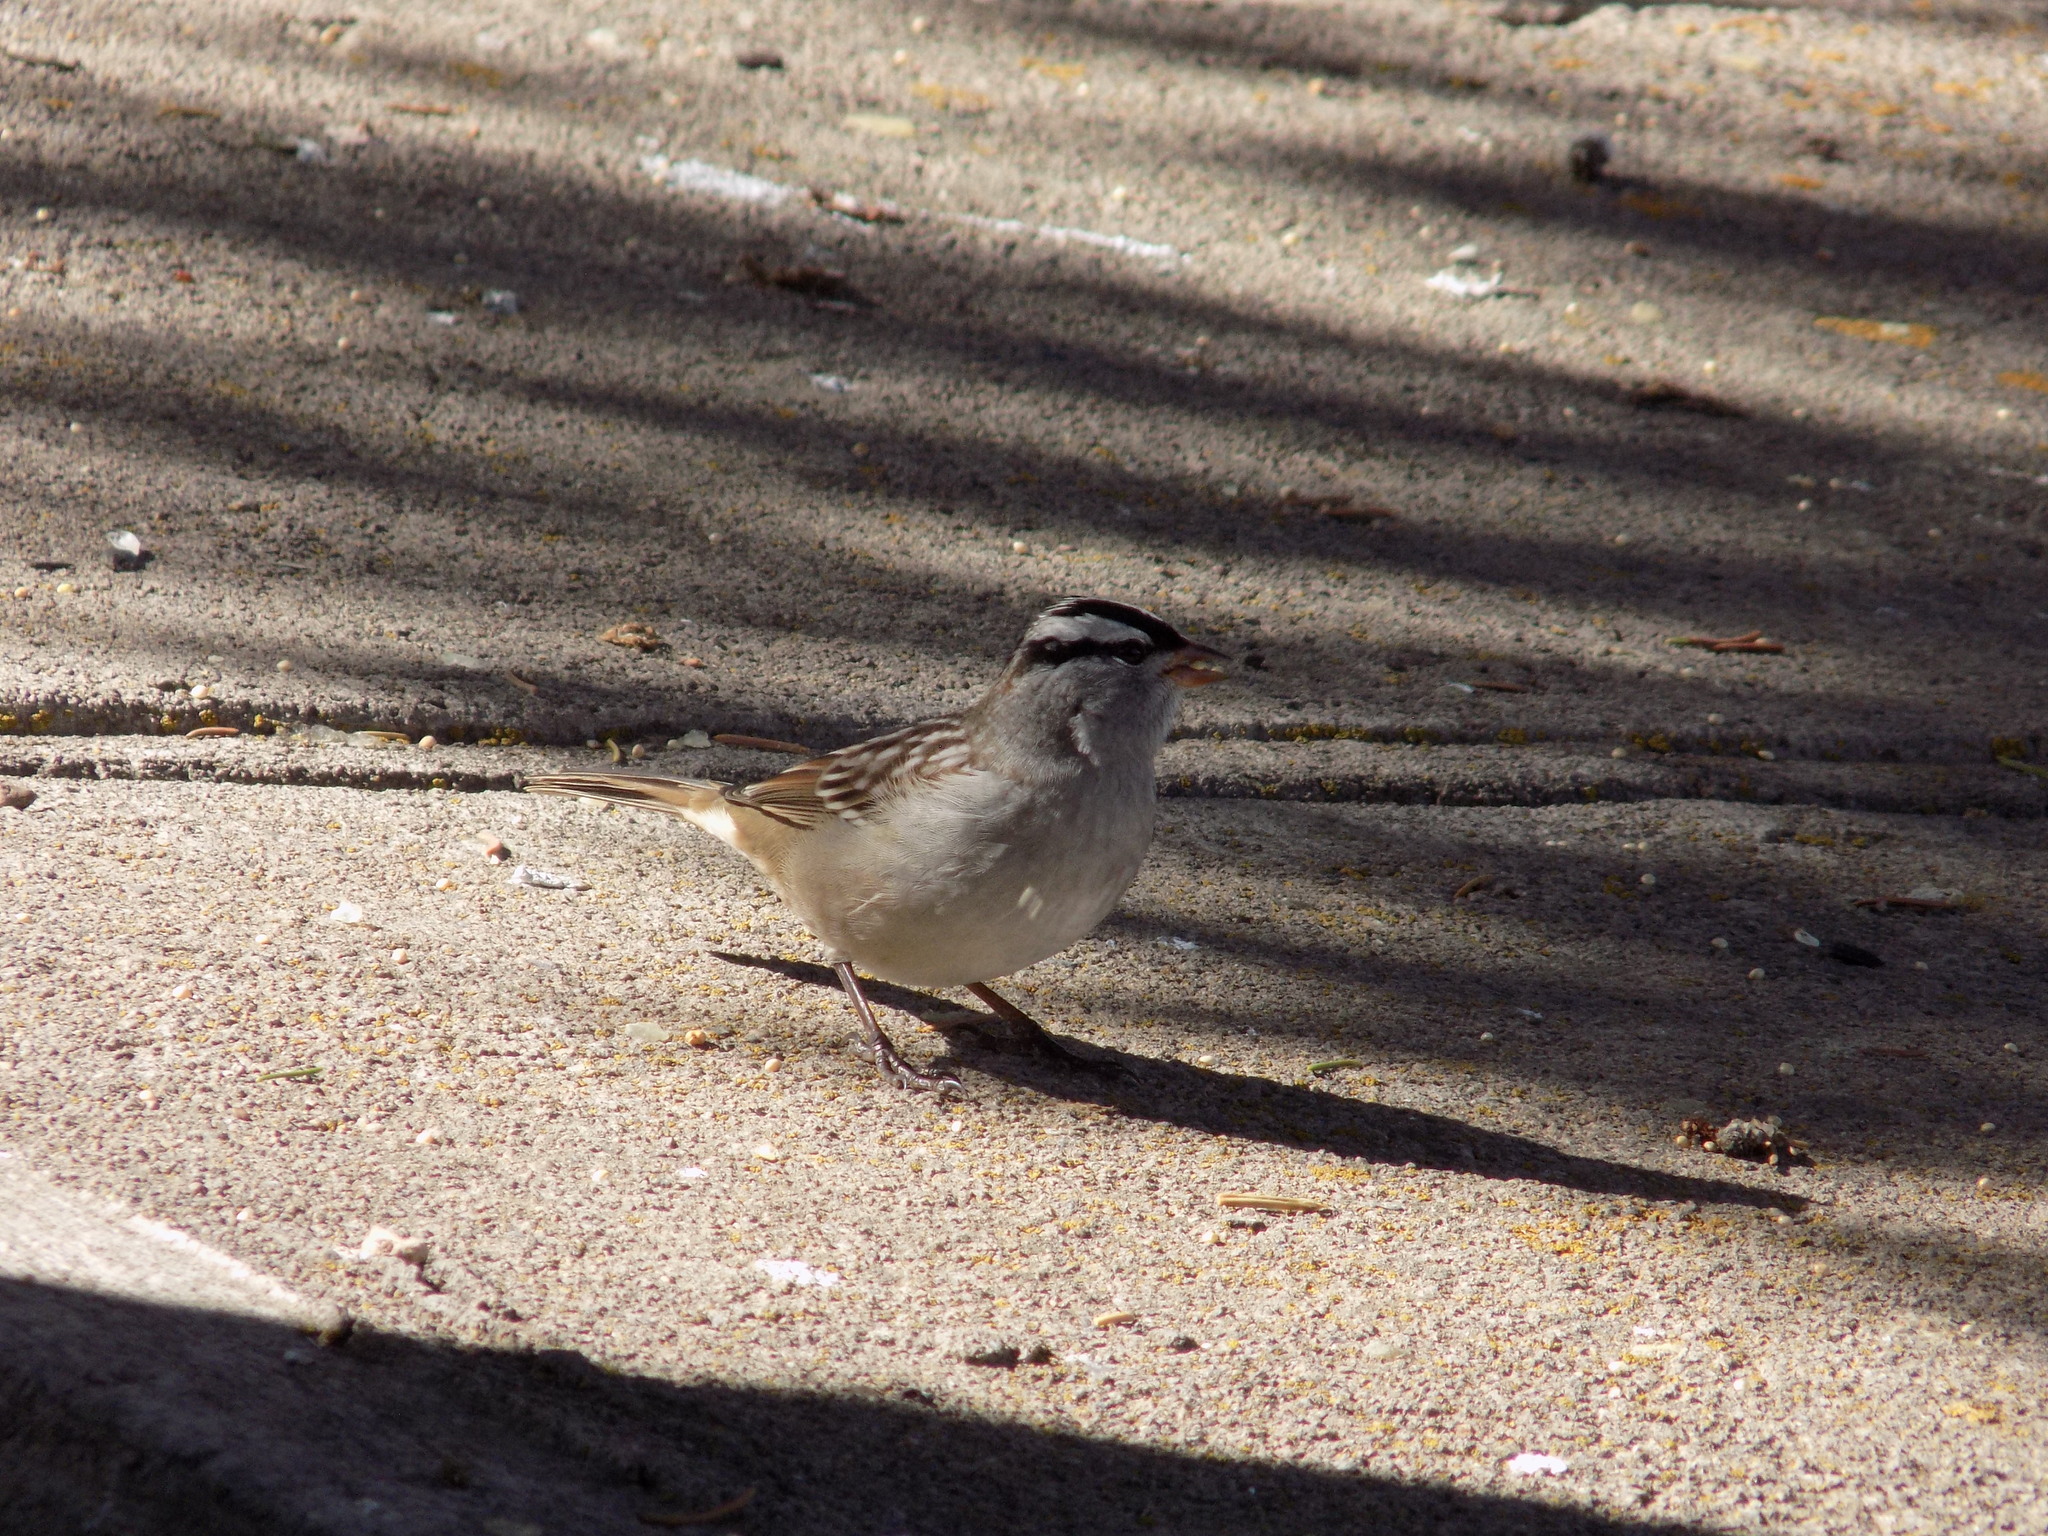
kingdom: Animalia
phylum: Chordata
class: Aves
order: Passeriformes
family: Passerellidae
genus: Zonotrichia
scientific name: Zonotrichia leucophrys
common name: White-crowned sparrow
